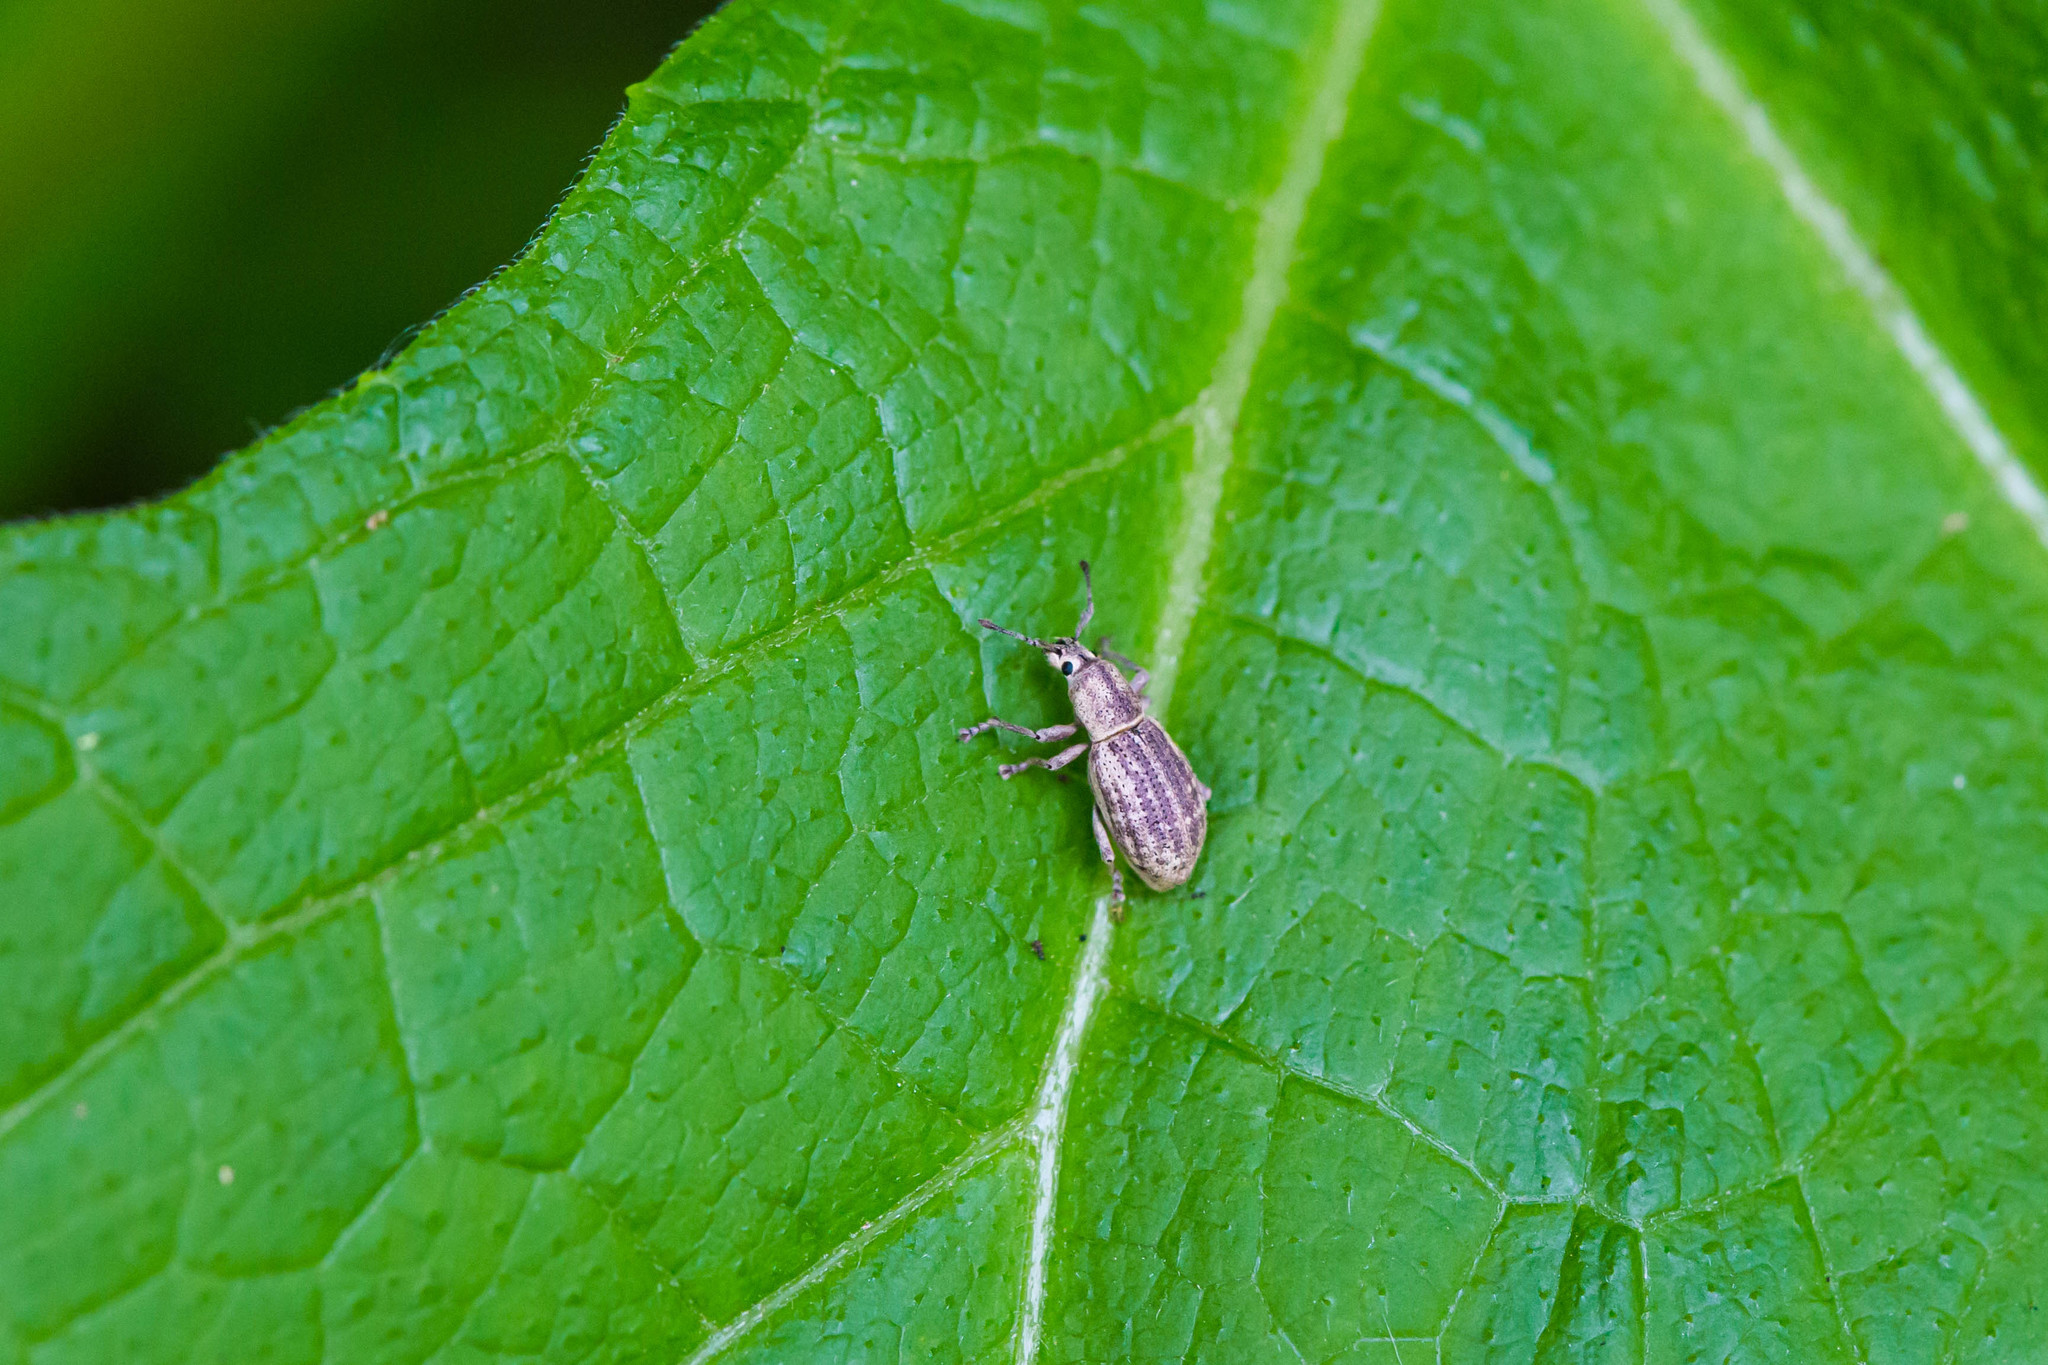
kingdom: Animalia
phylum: Arthropoda
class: Insecta
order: Coleoptera
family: Curculionidae
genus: Aphrastus
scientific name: Aphrastus taeniatus
